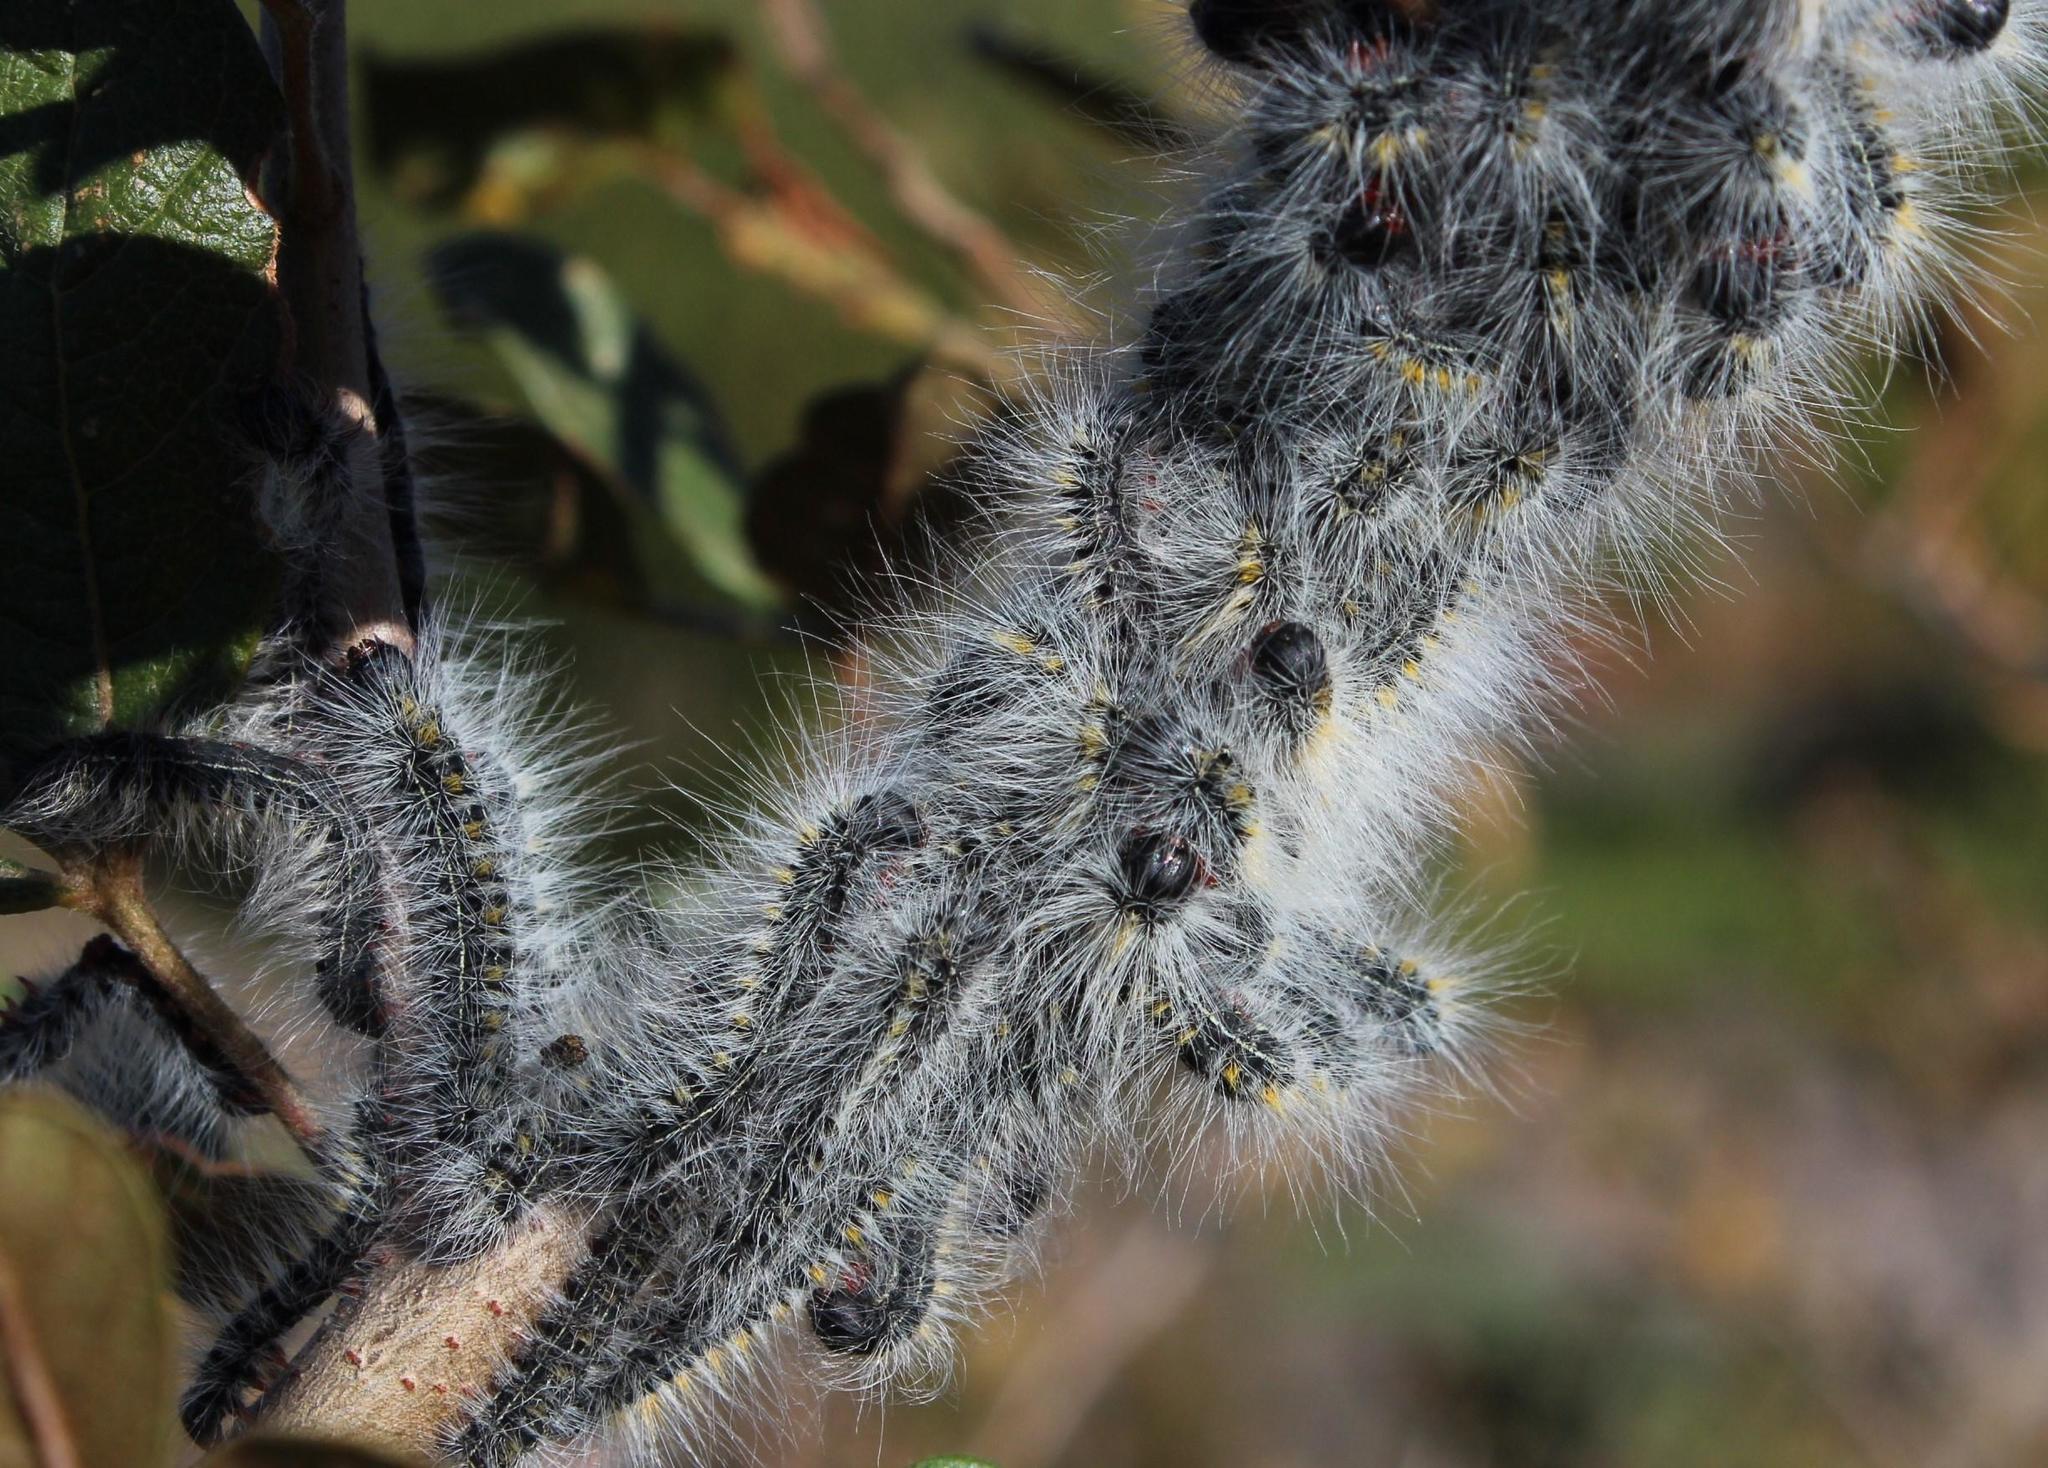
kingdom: Animalia
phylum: Arthropoda
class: Insecta
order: Lepidoptera
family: Lasiocampidae
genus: Bombycomorpha
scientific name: Bombycomorpha bifascia
